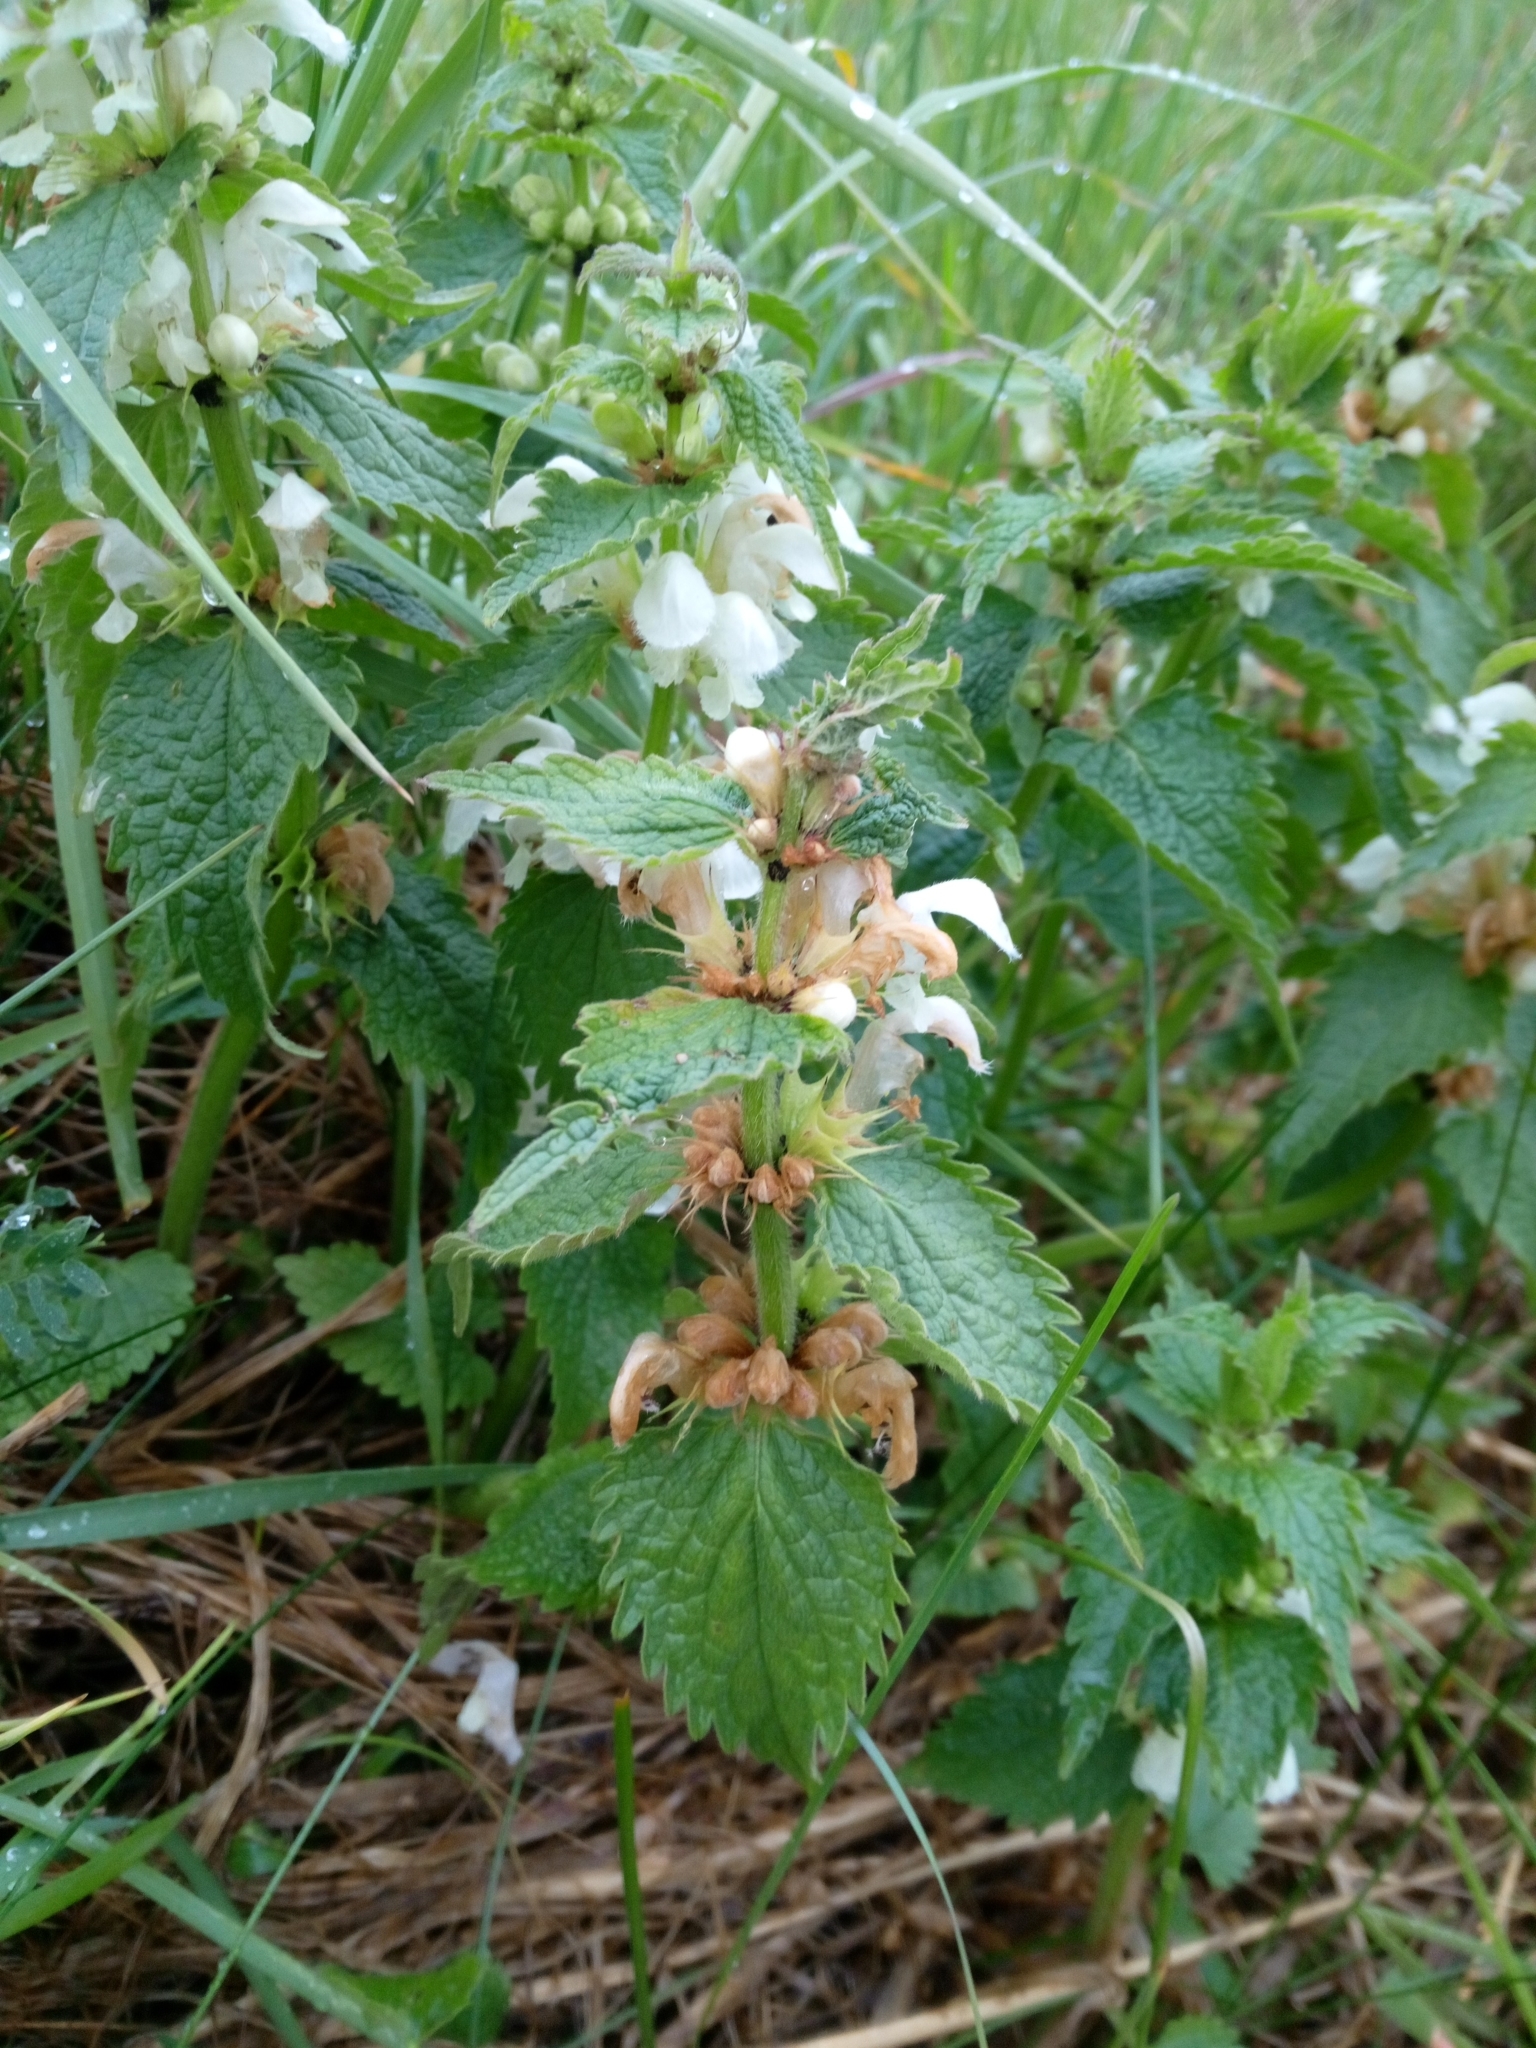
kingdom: Plantae
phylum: Tracheophyta
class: Magnoliopsida
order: Lamiales
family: Lamiaceae
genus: Lamium
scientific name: Lamium album
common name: White dead-nettle
